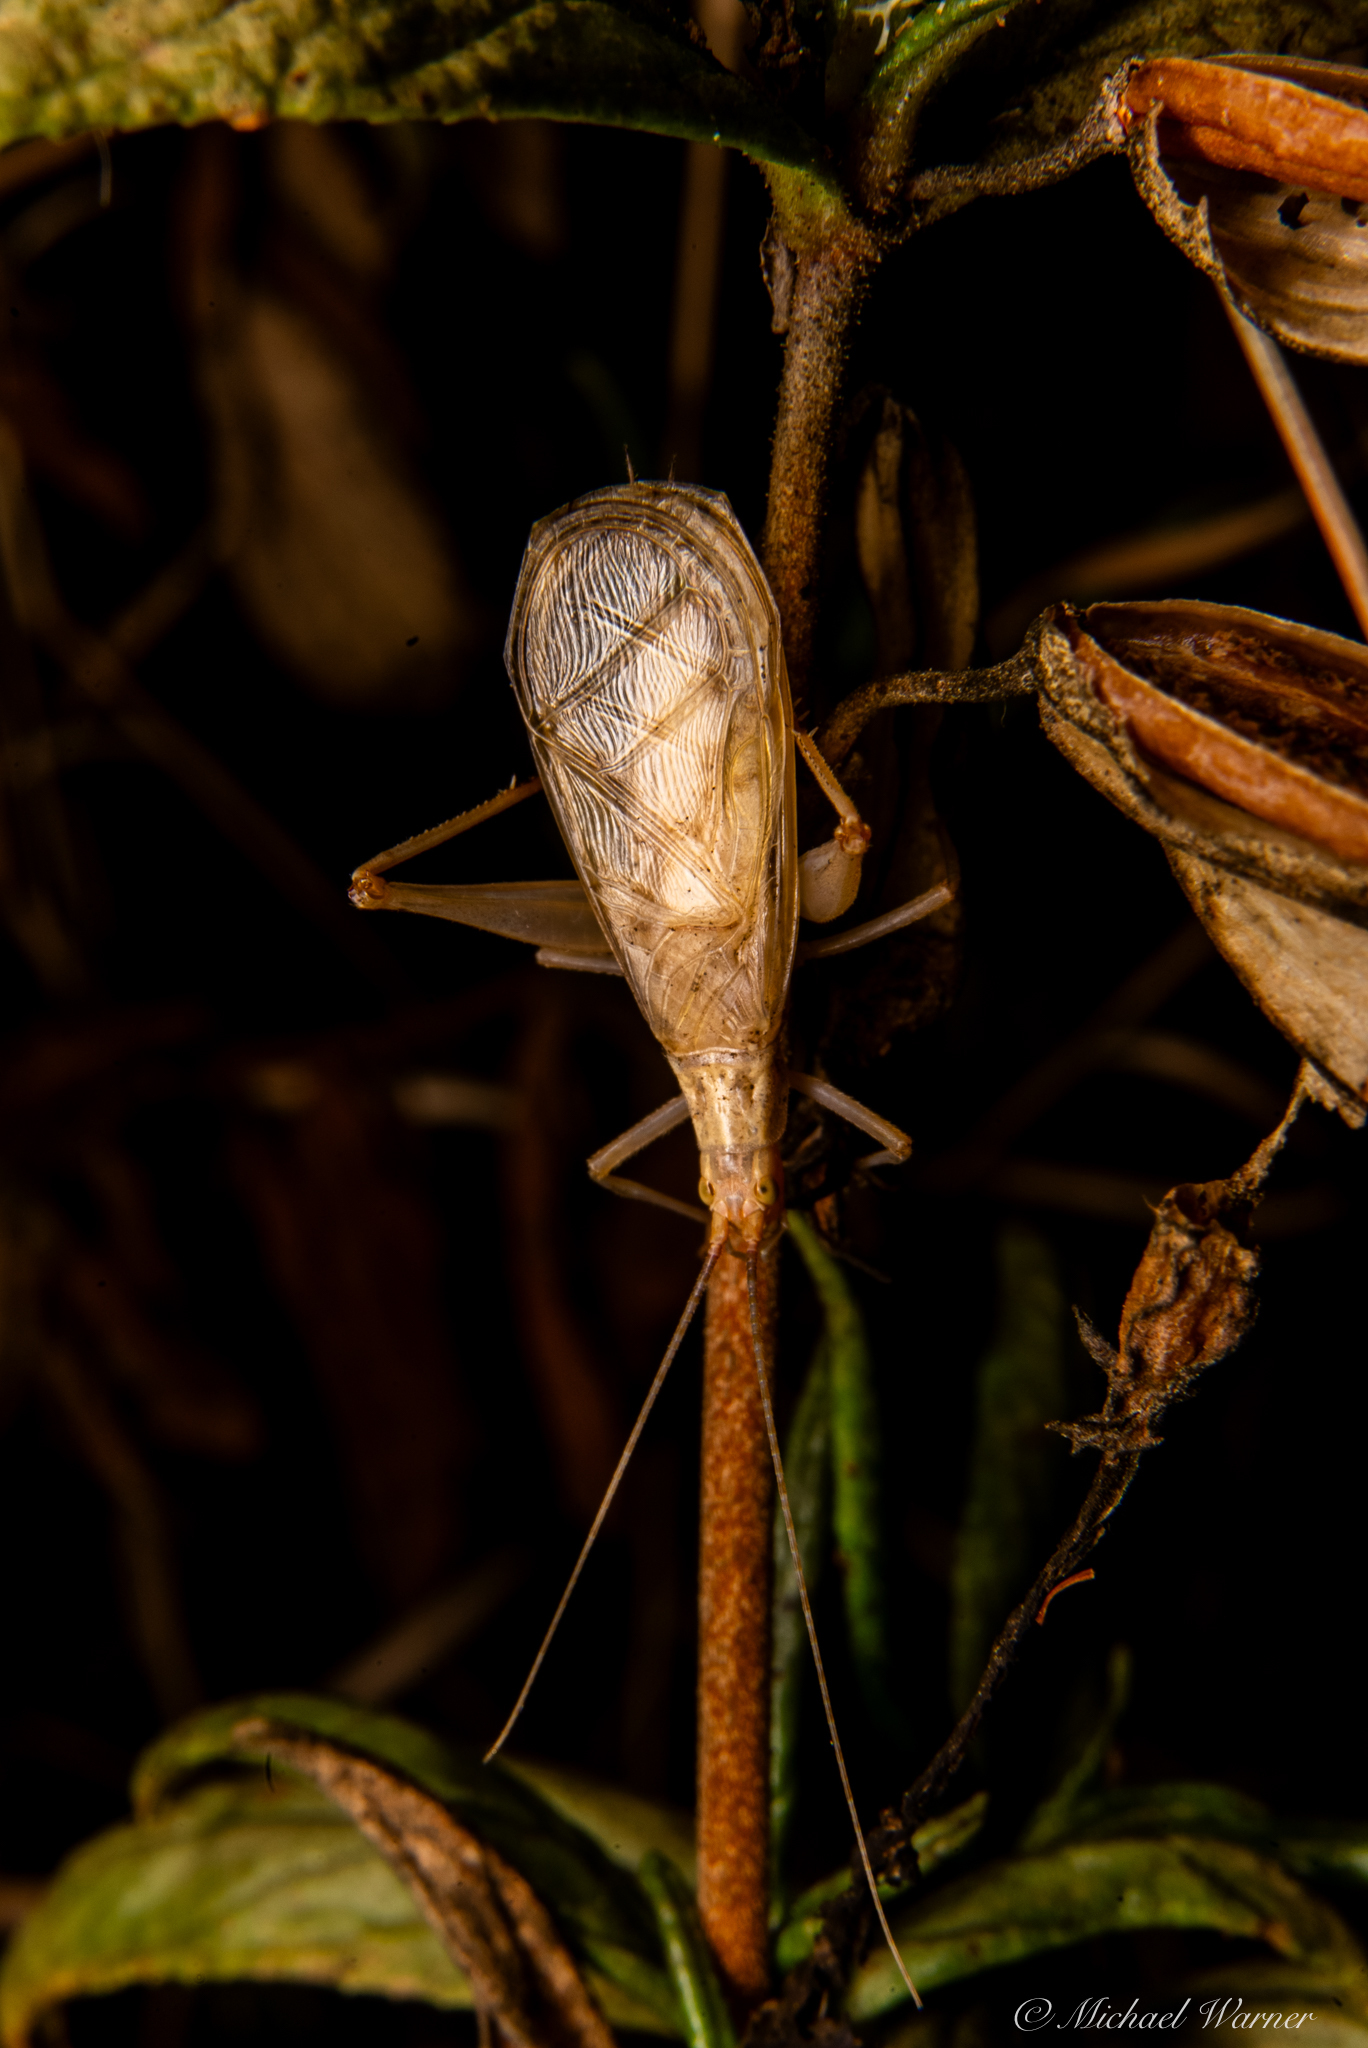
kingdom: Animalia
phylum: Arthropoda
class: Insecta
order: Orthoptera
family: Gryllidae
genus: Oecanthus
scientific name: Oecanthus californicus
